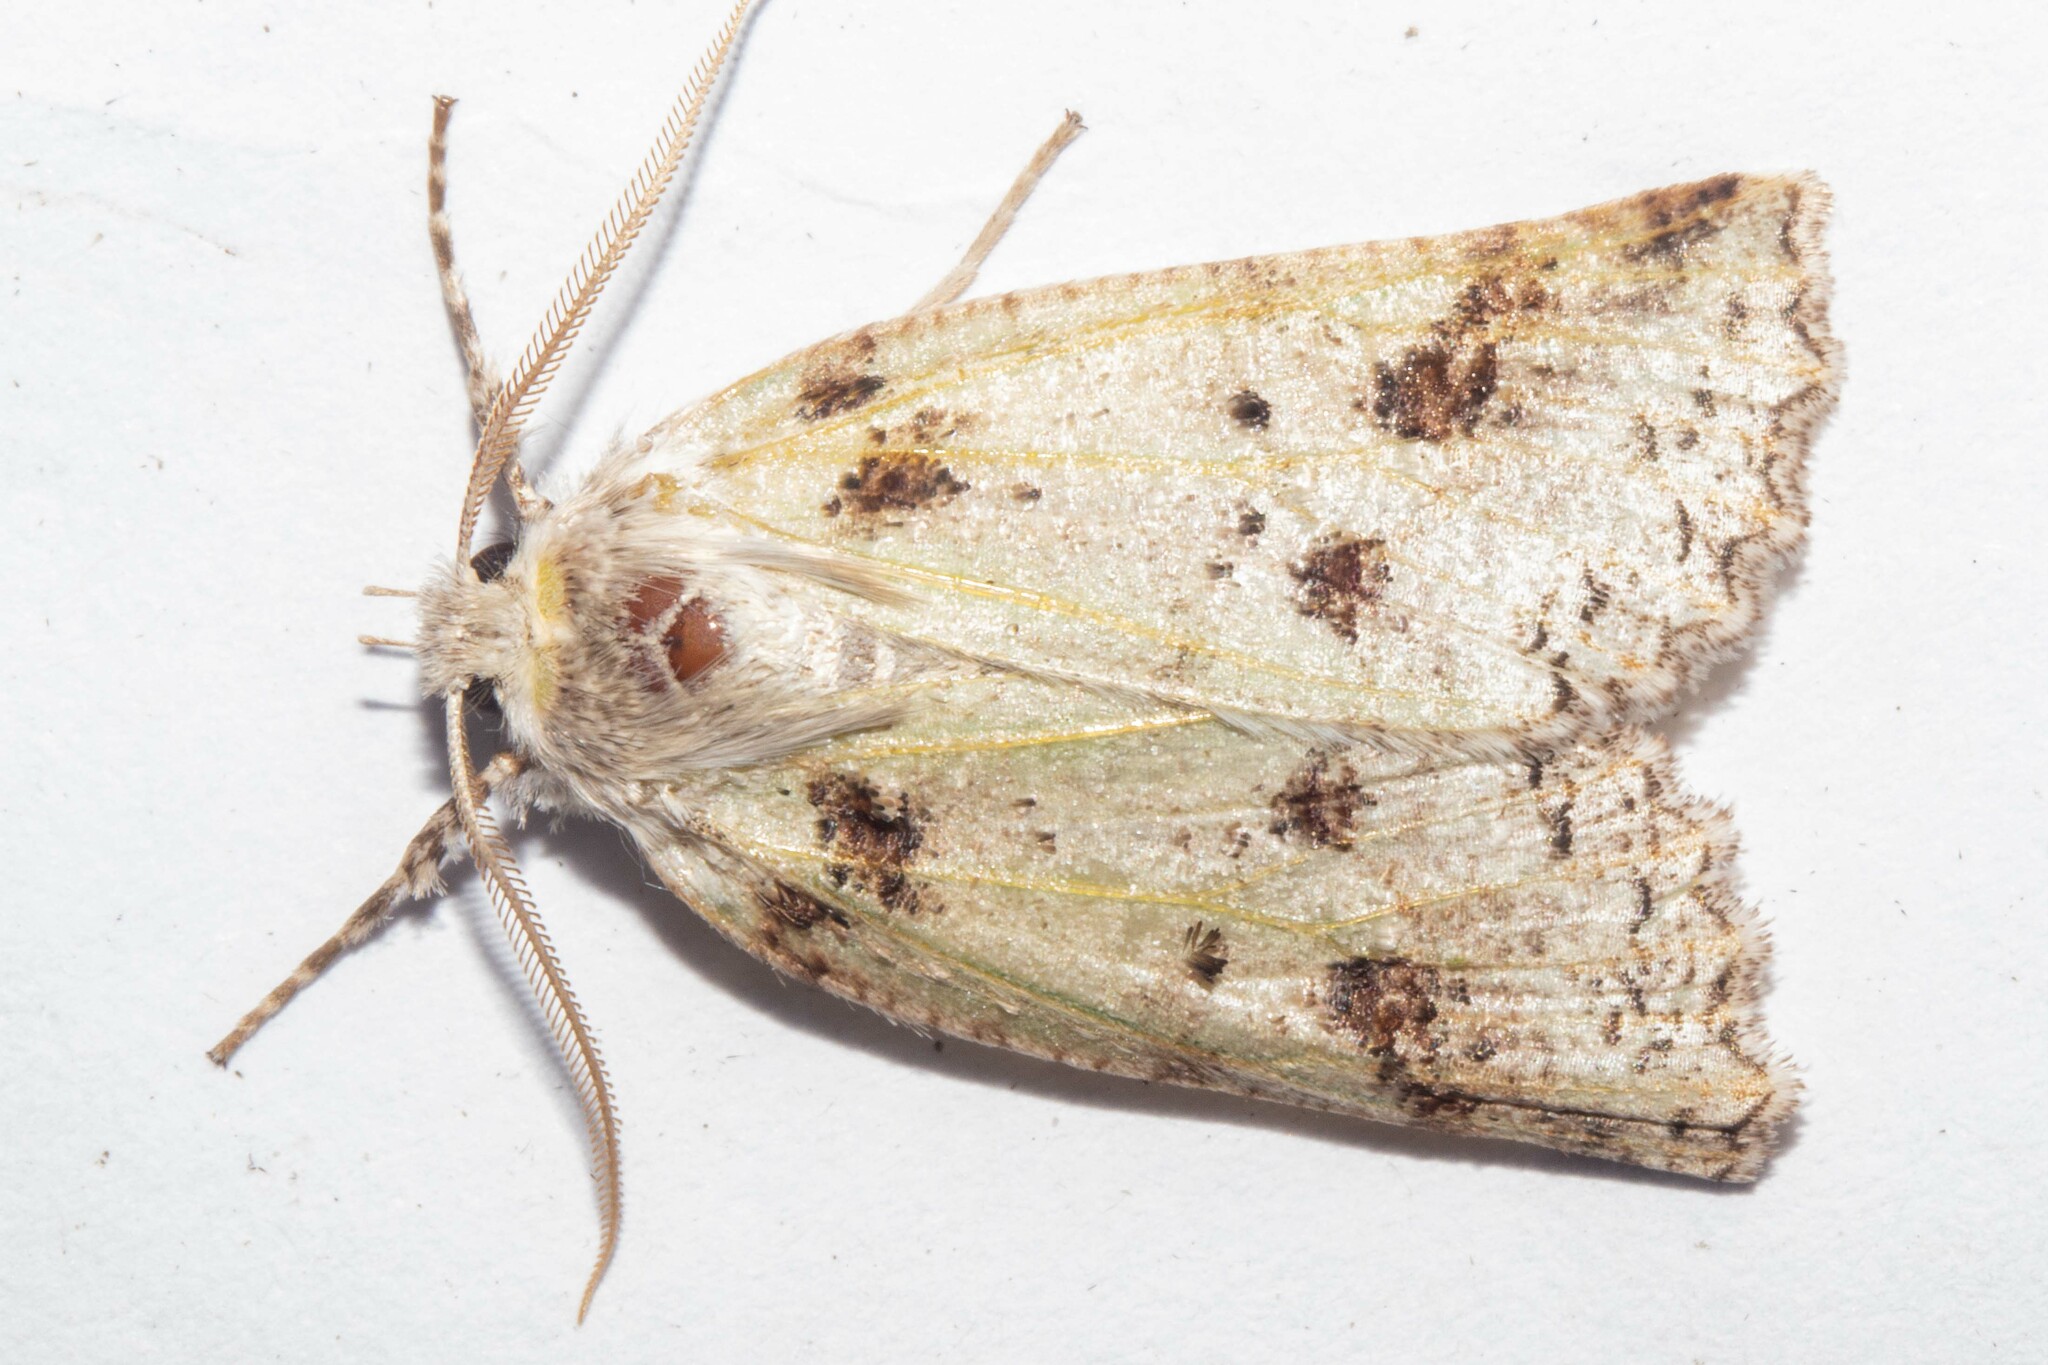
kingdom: Animalia
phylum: Arthropoda
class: Insecta
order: Lepidoptera
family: Geometridae
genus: Declana
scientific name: Declana floccosa
